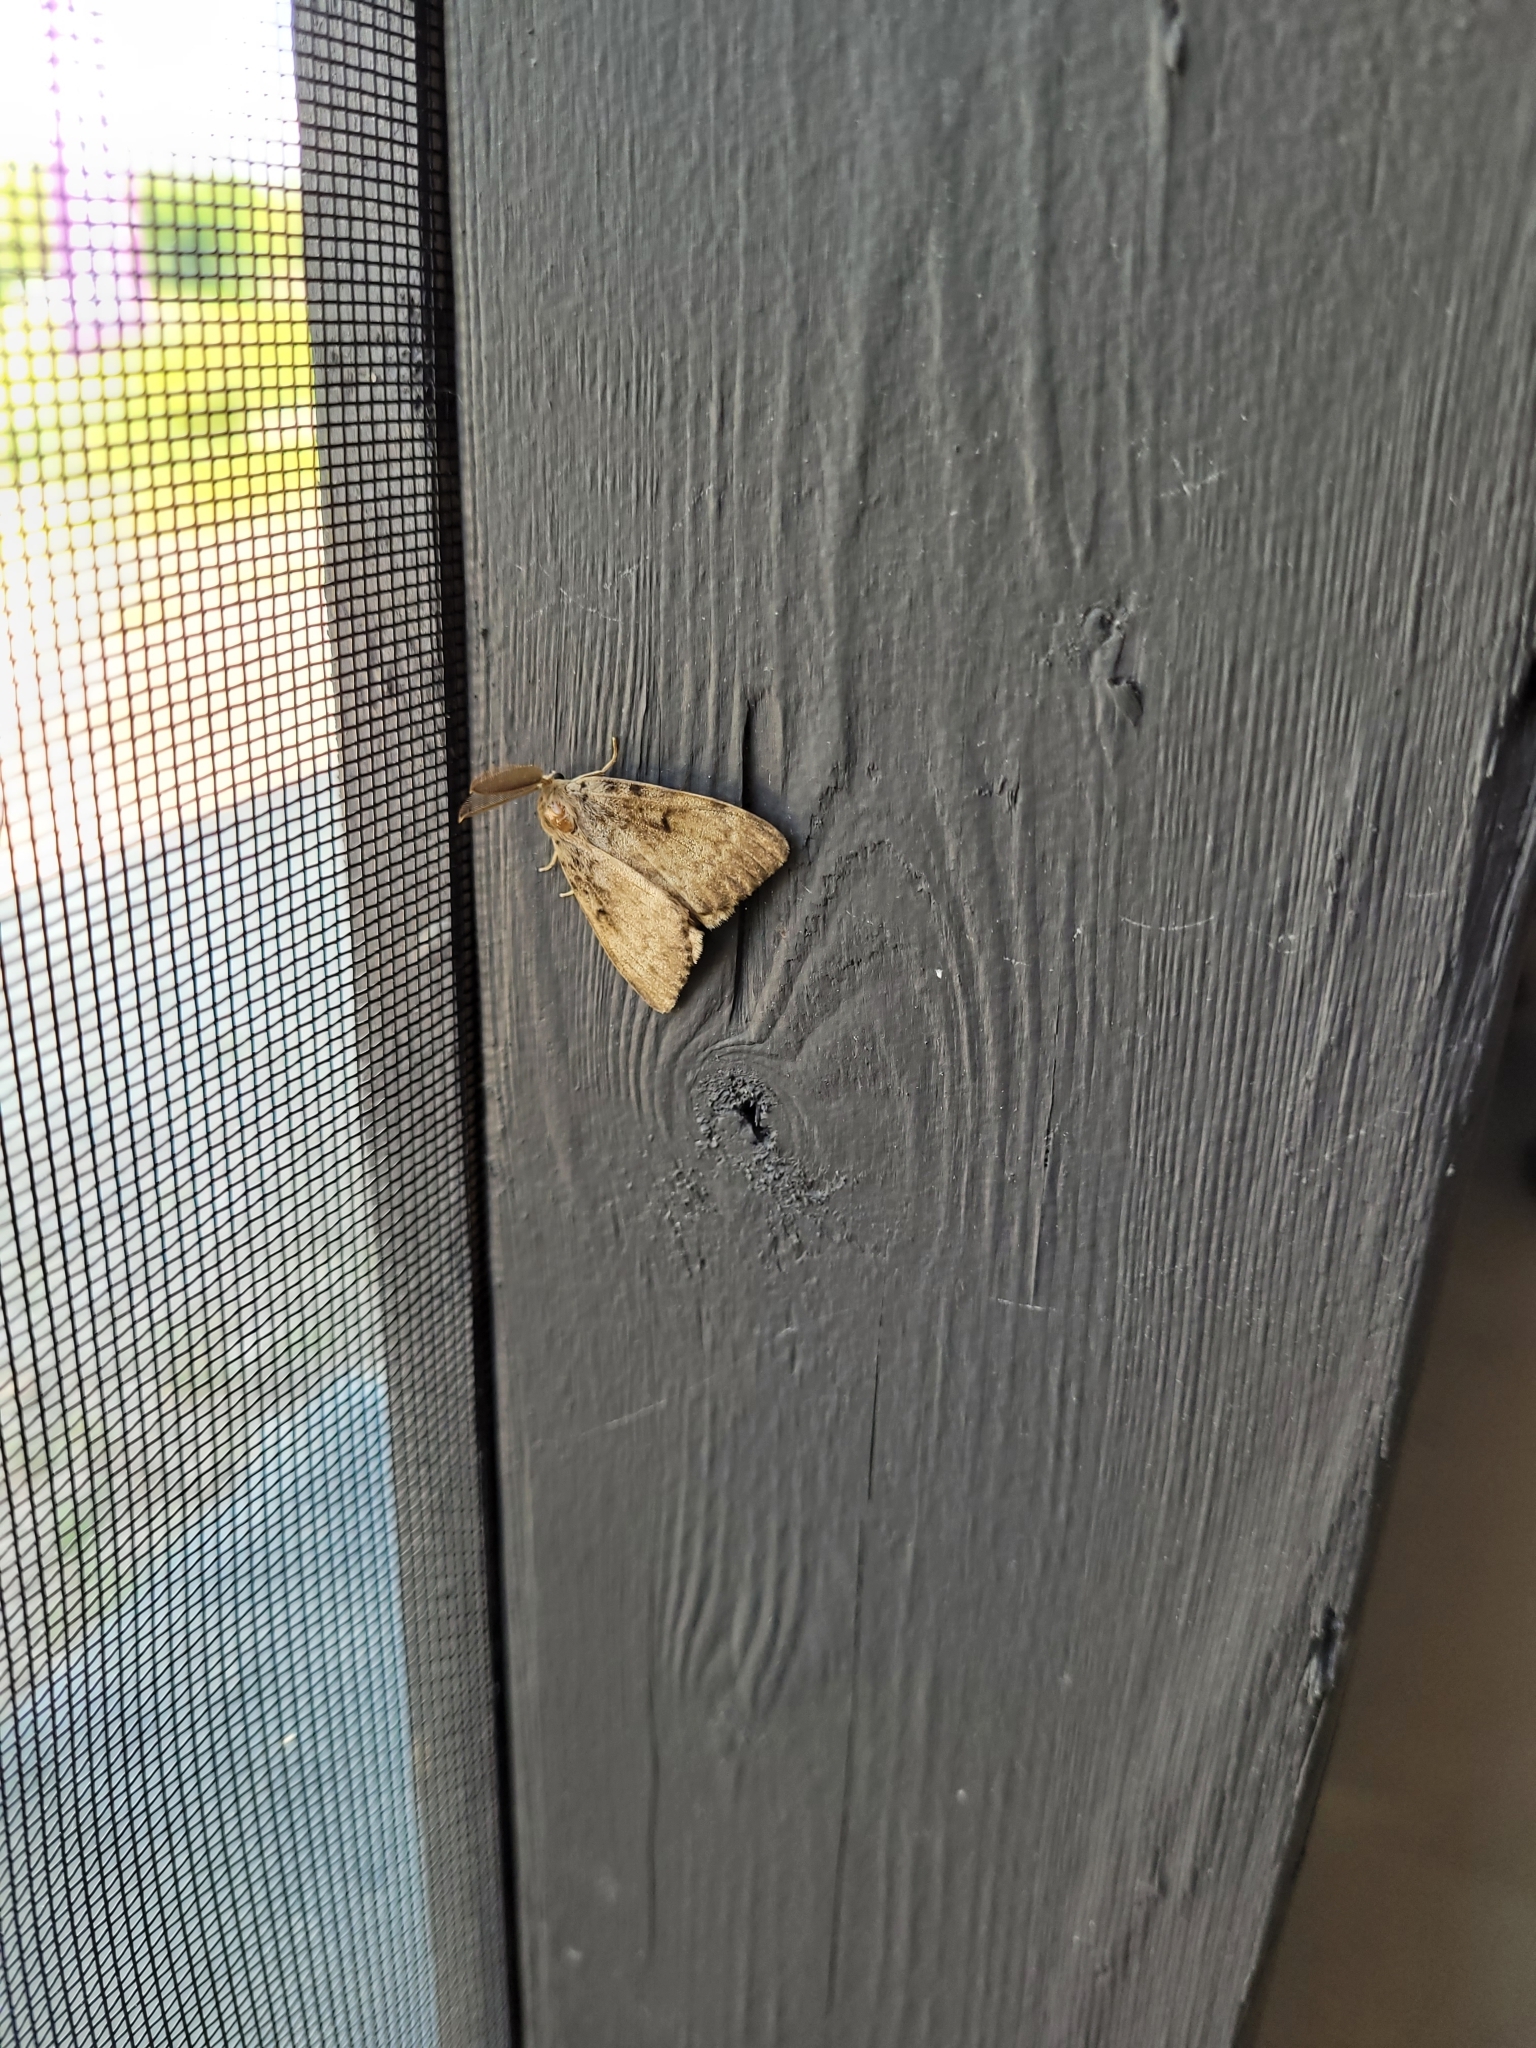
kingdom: Animalia
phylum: Arthropoda
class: Insecta
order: Lepidoptera
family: Erebidae
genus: Lymantria
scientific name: Lymantria dispar
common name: Gypsy moth
